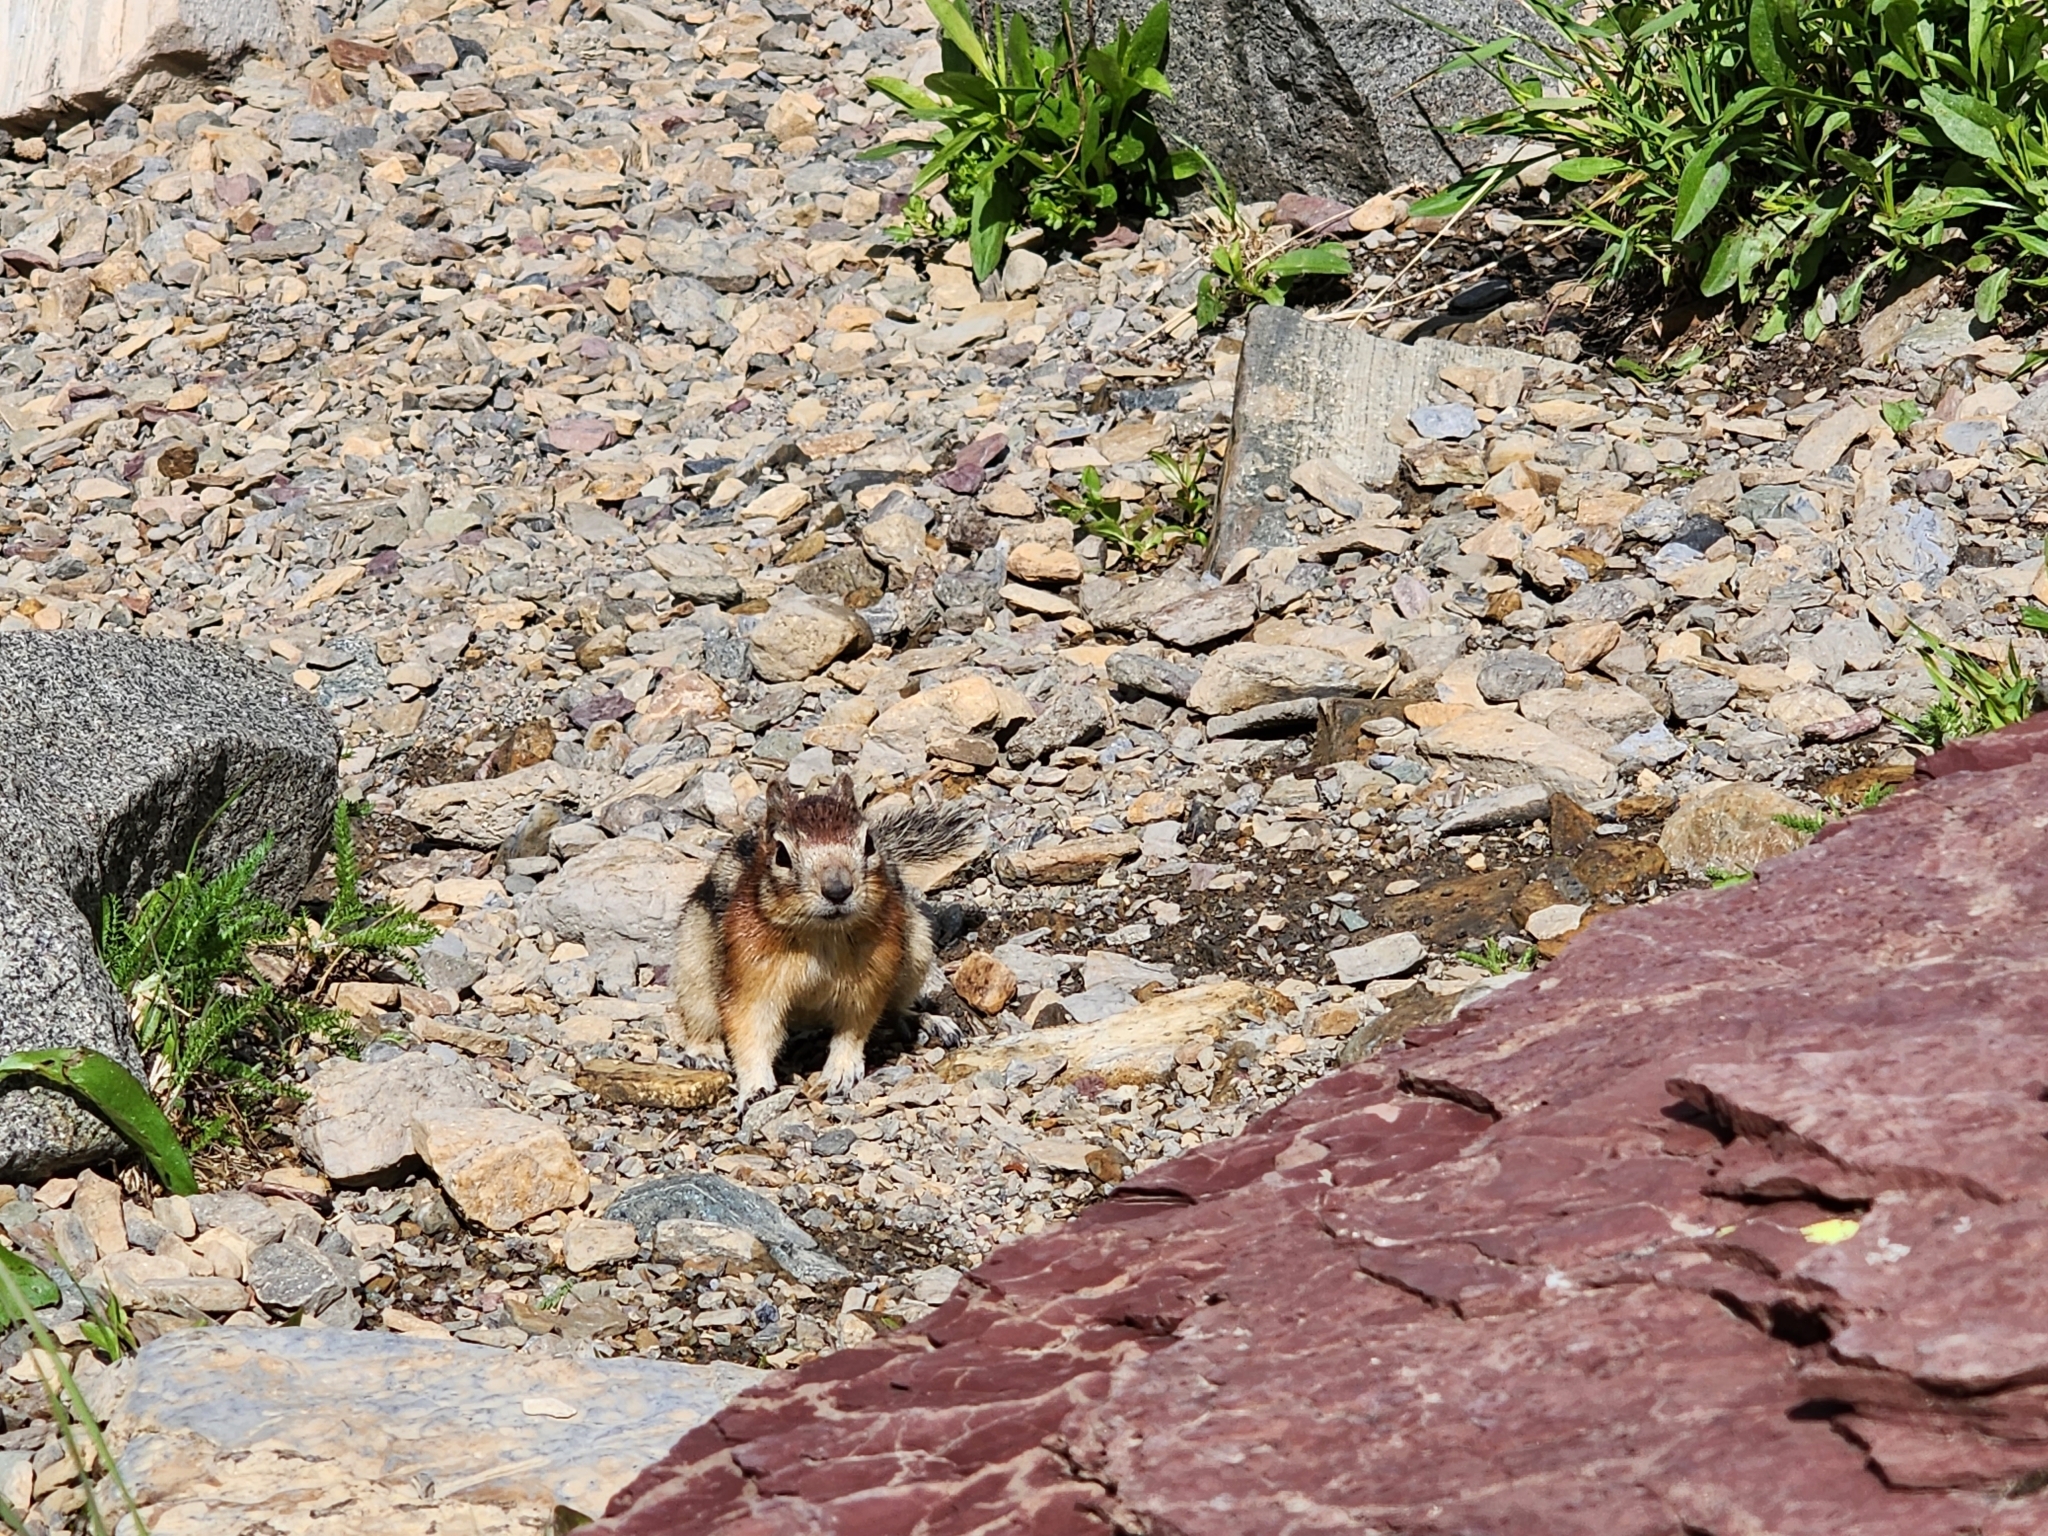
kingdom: Animalia
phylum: Chordata
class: Mammalia
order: Rodentia
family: Sciuridae
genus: Callospermophilus
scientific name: Callospermophilus lateralis
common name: Golden-mantled ground squirrel
